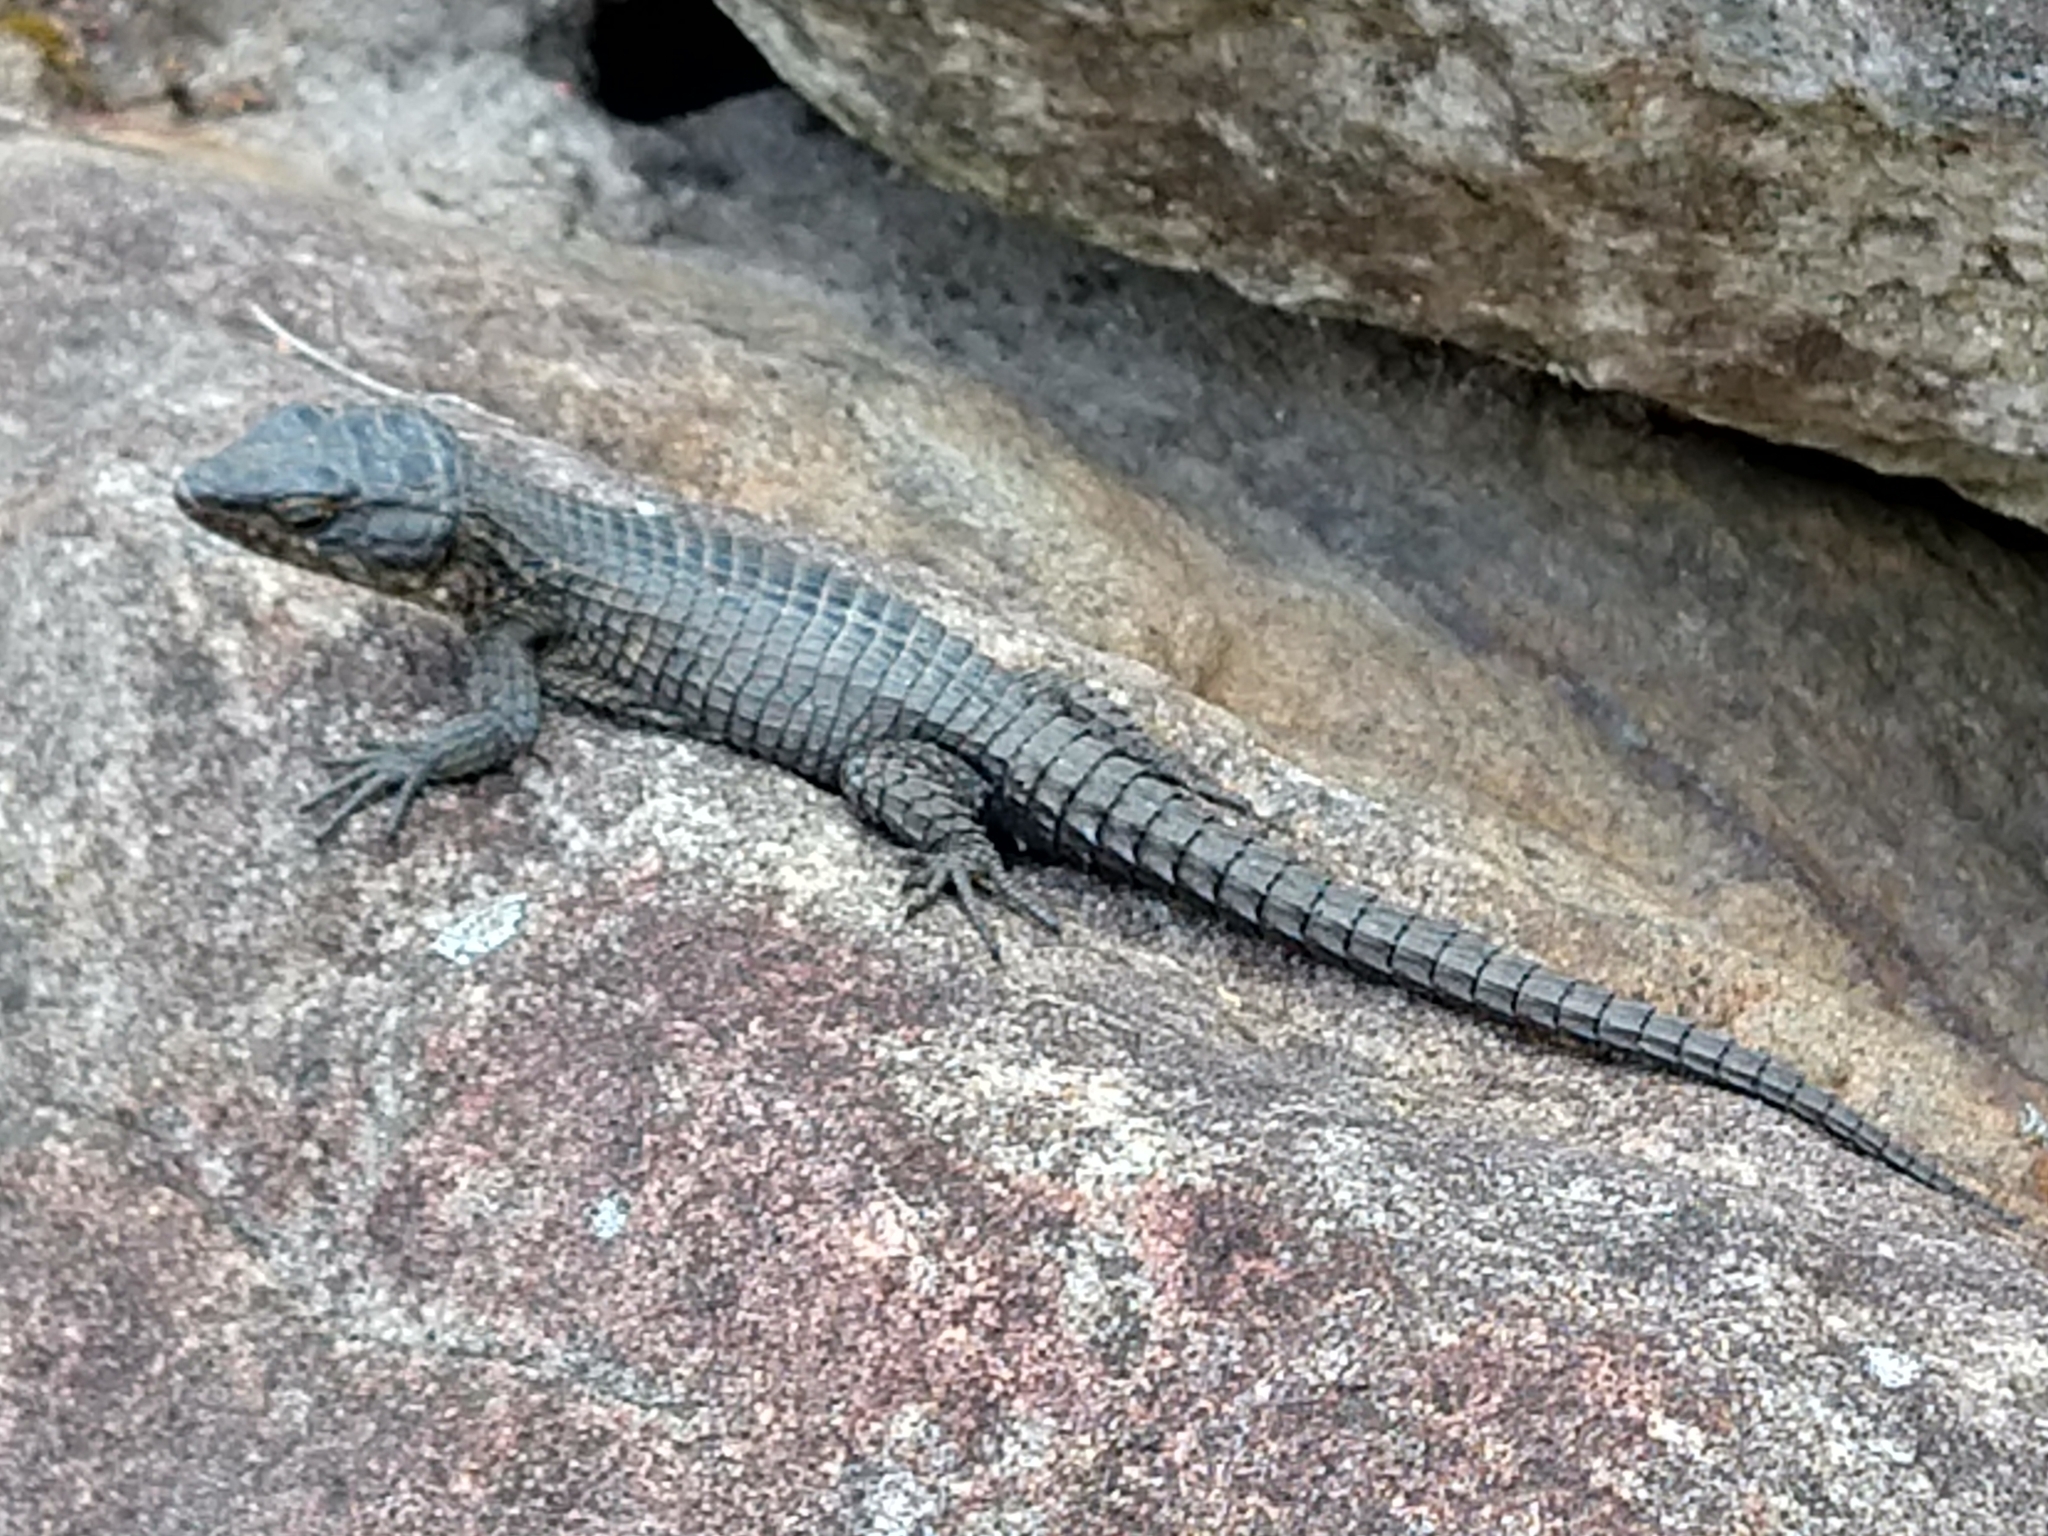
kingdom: Animalia
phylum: Chordata
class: Squamata
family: Cordylidae
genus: Cordylus
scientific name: Cordylus niger
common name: Black girdled lizard
